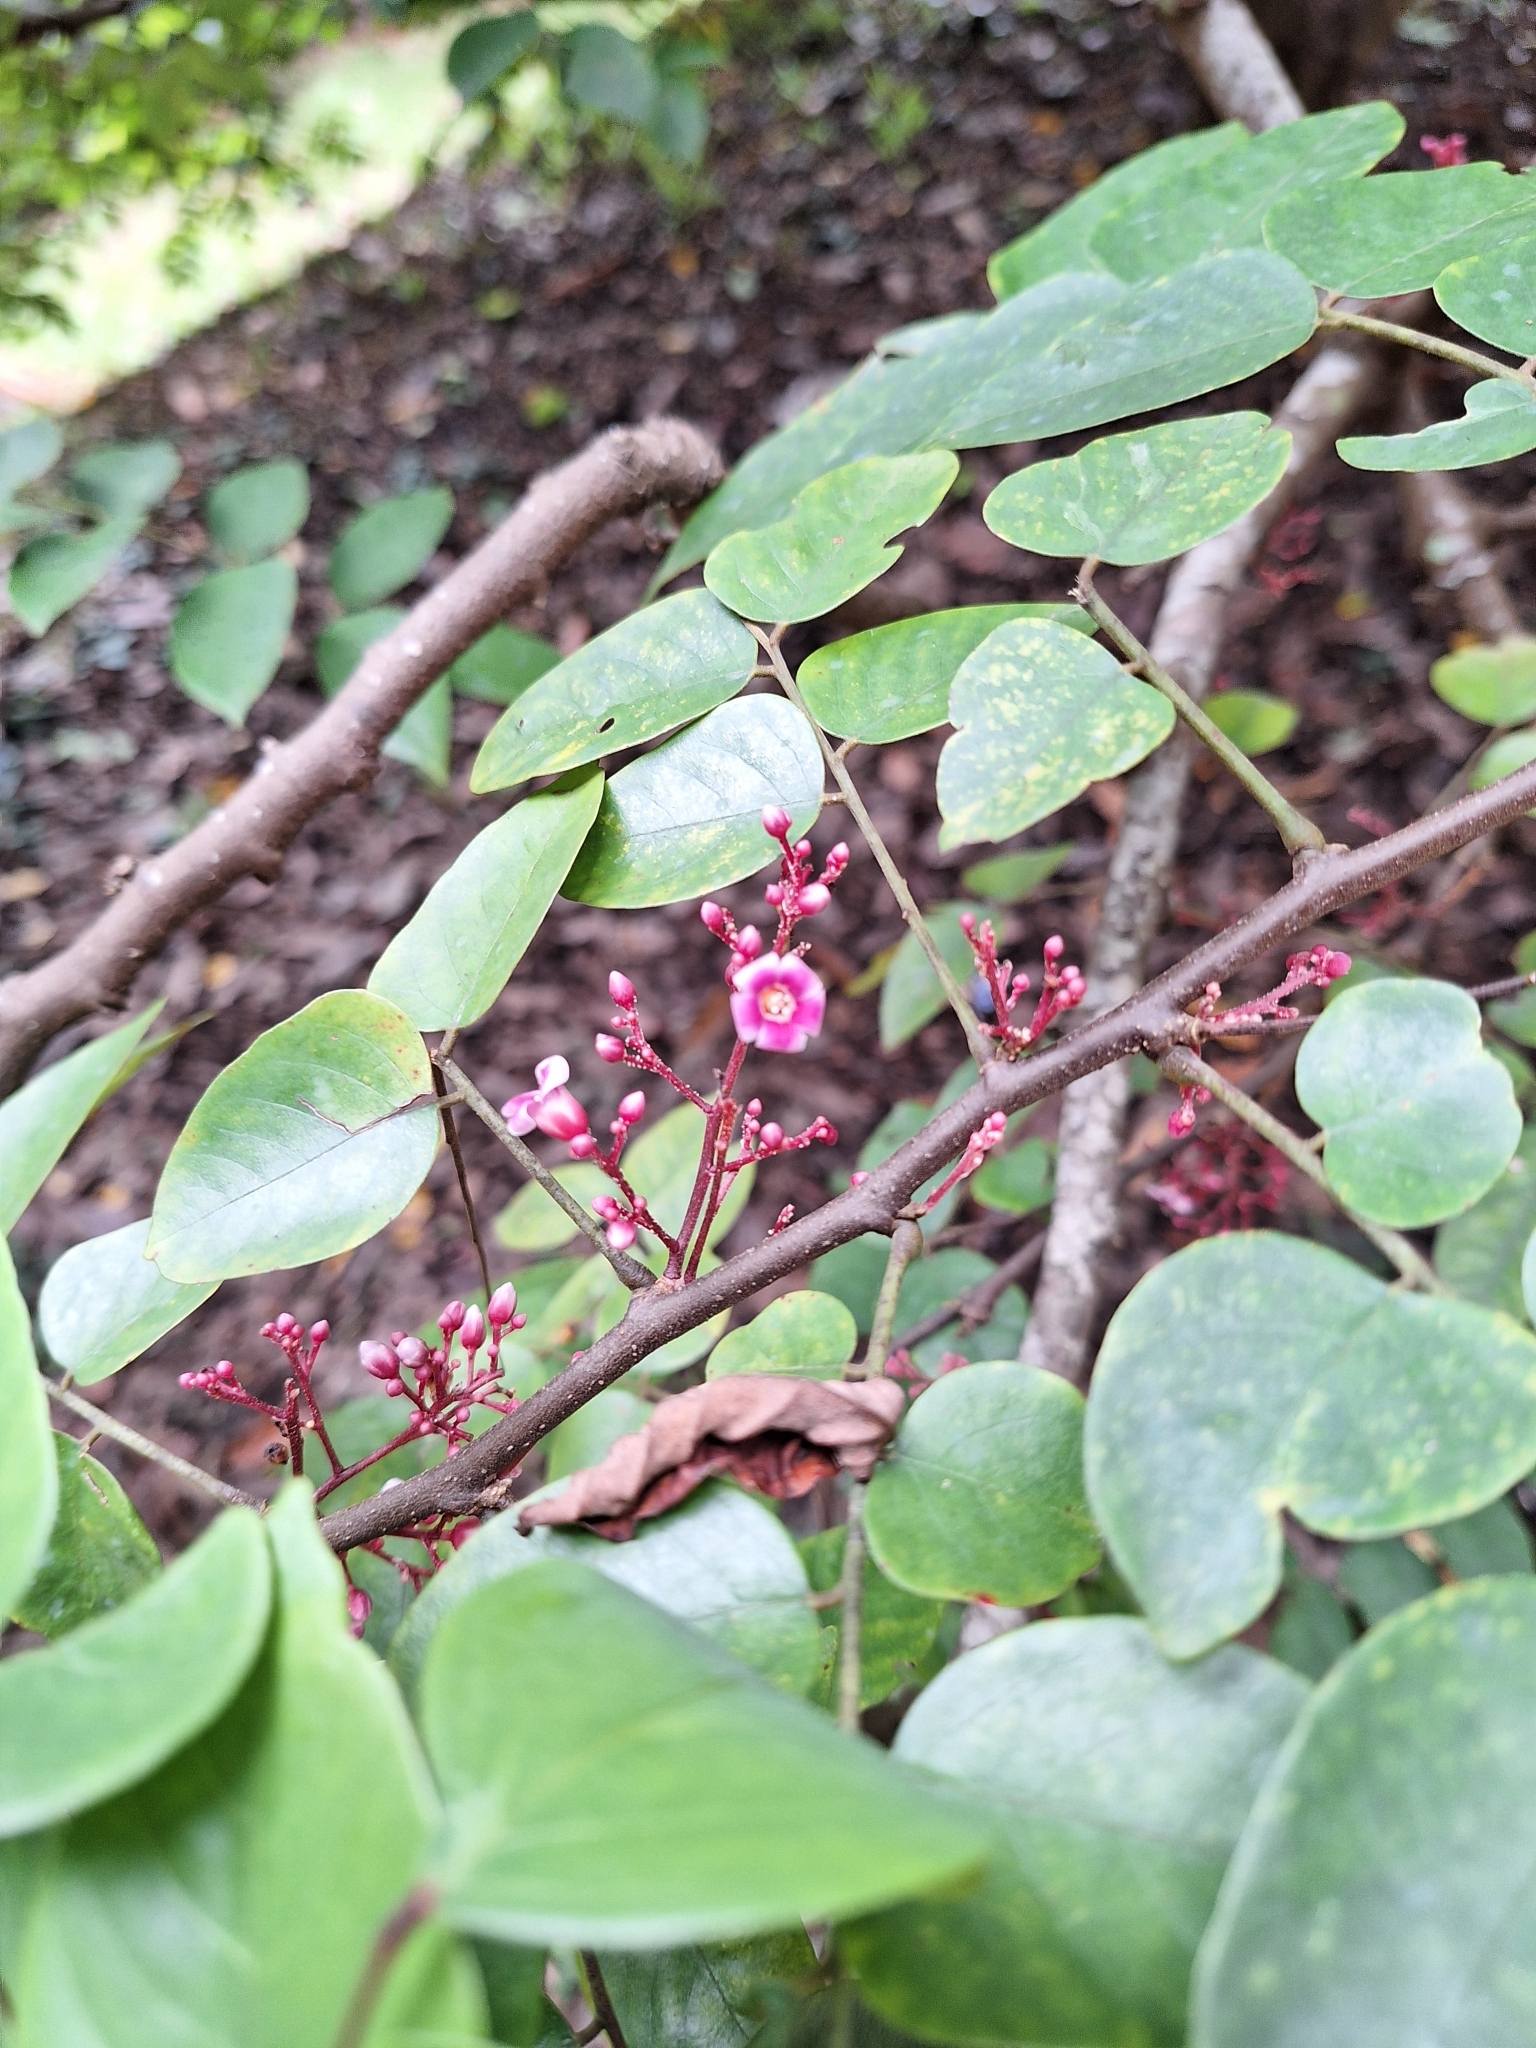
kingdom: Plantae
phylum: Tracheophyta
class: Magnoliopsida
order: Oxalidales
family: Oxalidaceae
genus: Averrhoa
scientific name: Averrhoa carambola
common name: Blimbing
